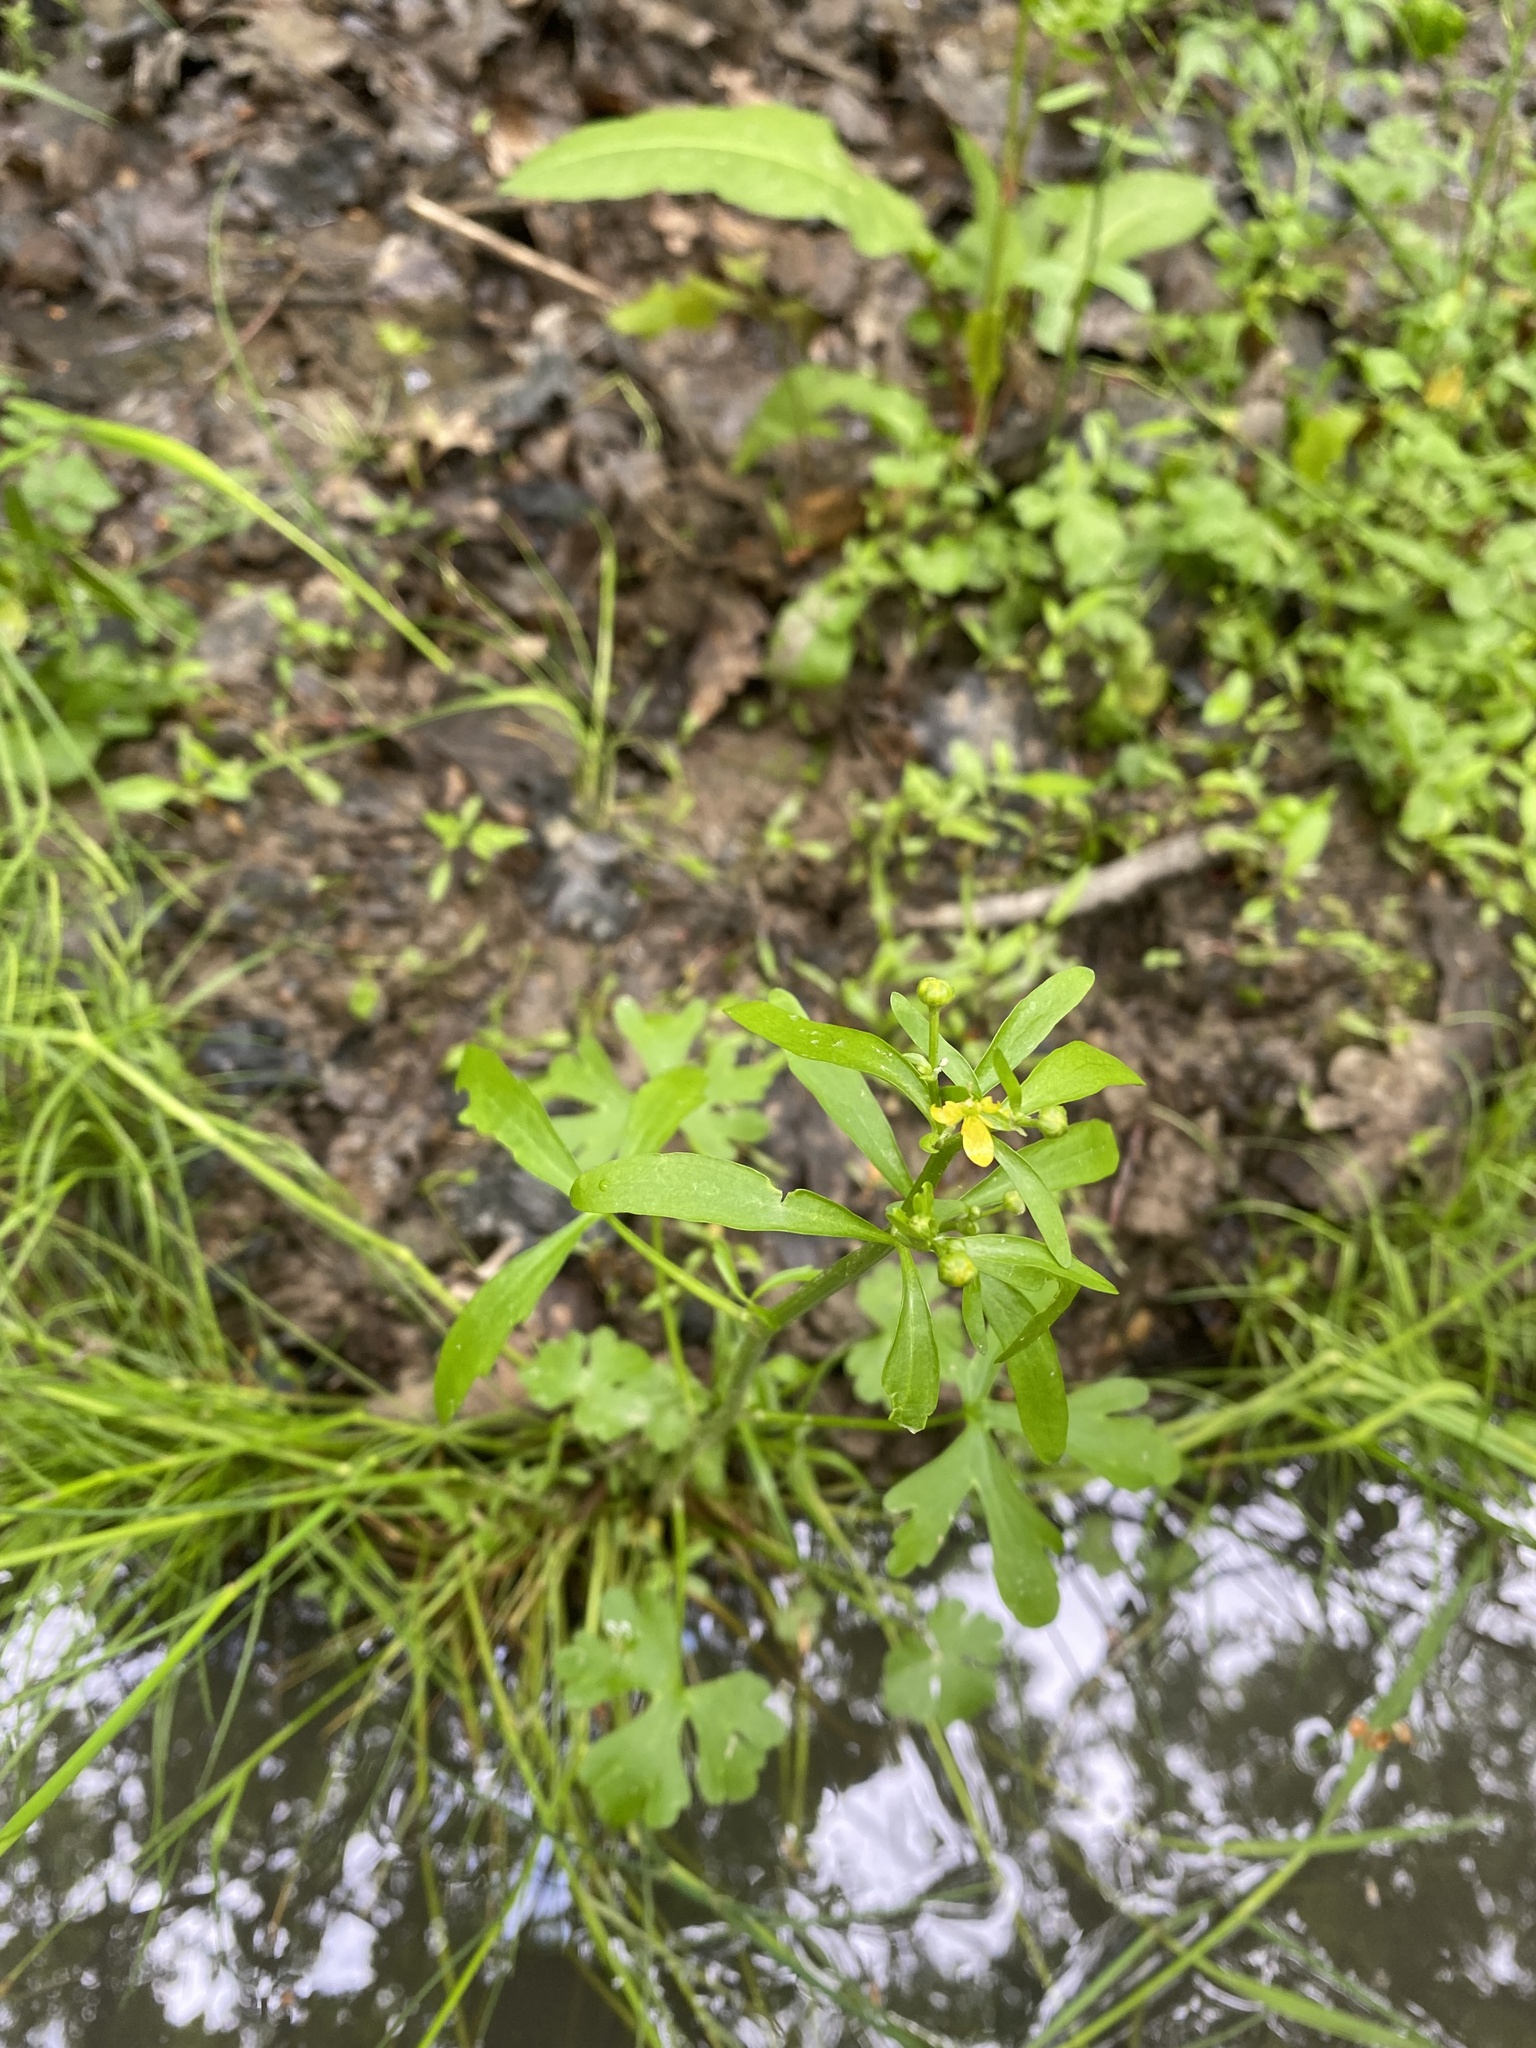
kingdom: Plantae
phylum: Tracheophyta
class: Magnoliopsida
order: Ranunculales
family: Ranunculaceae
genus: Ranunculus
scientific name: Ranunculus sceleratus
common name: Celery-leaved buttercup
